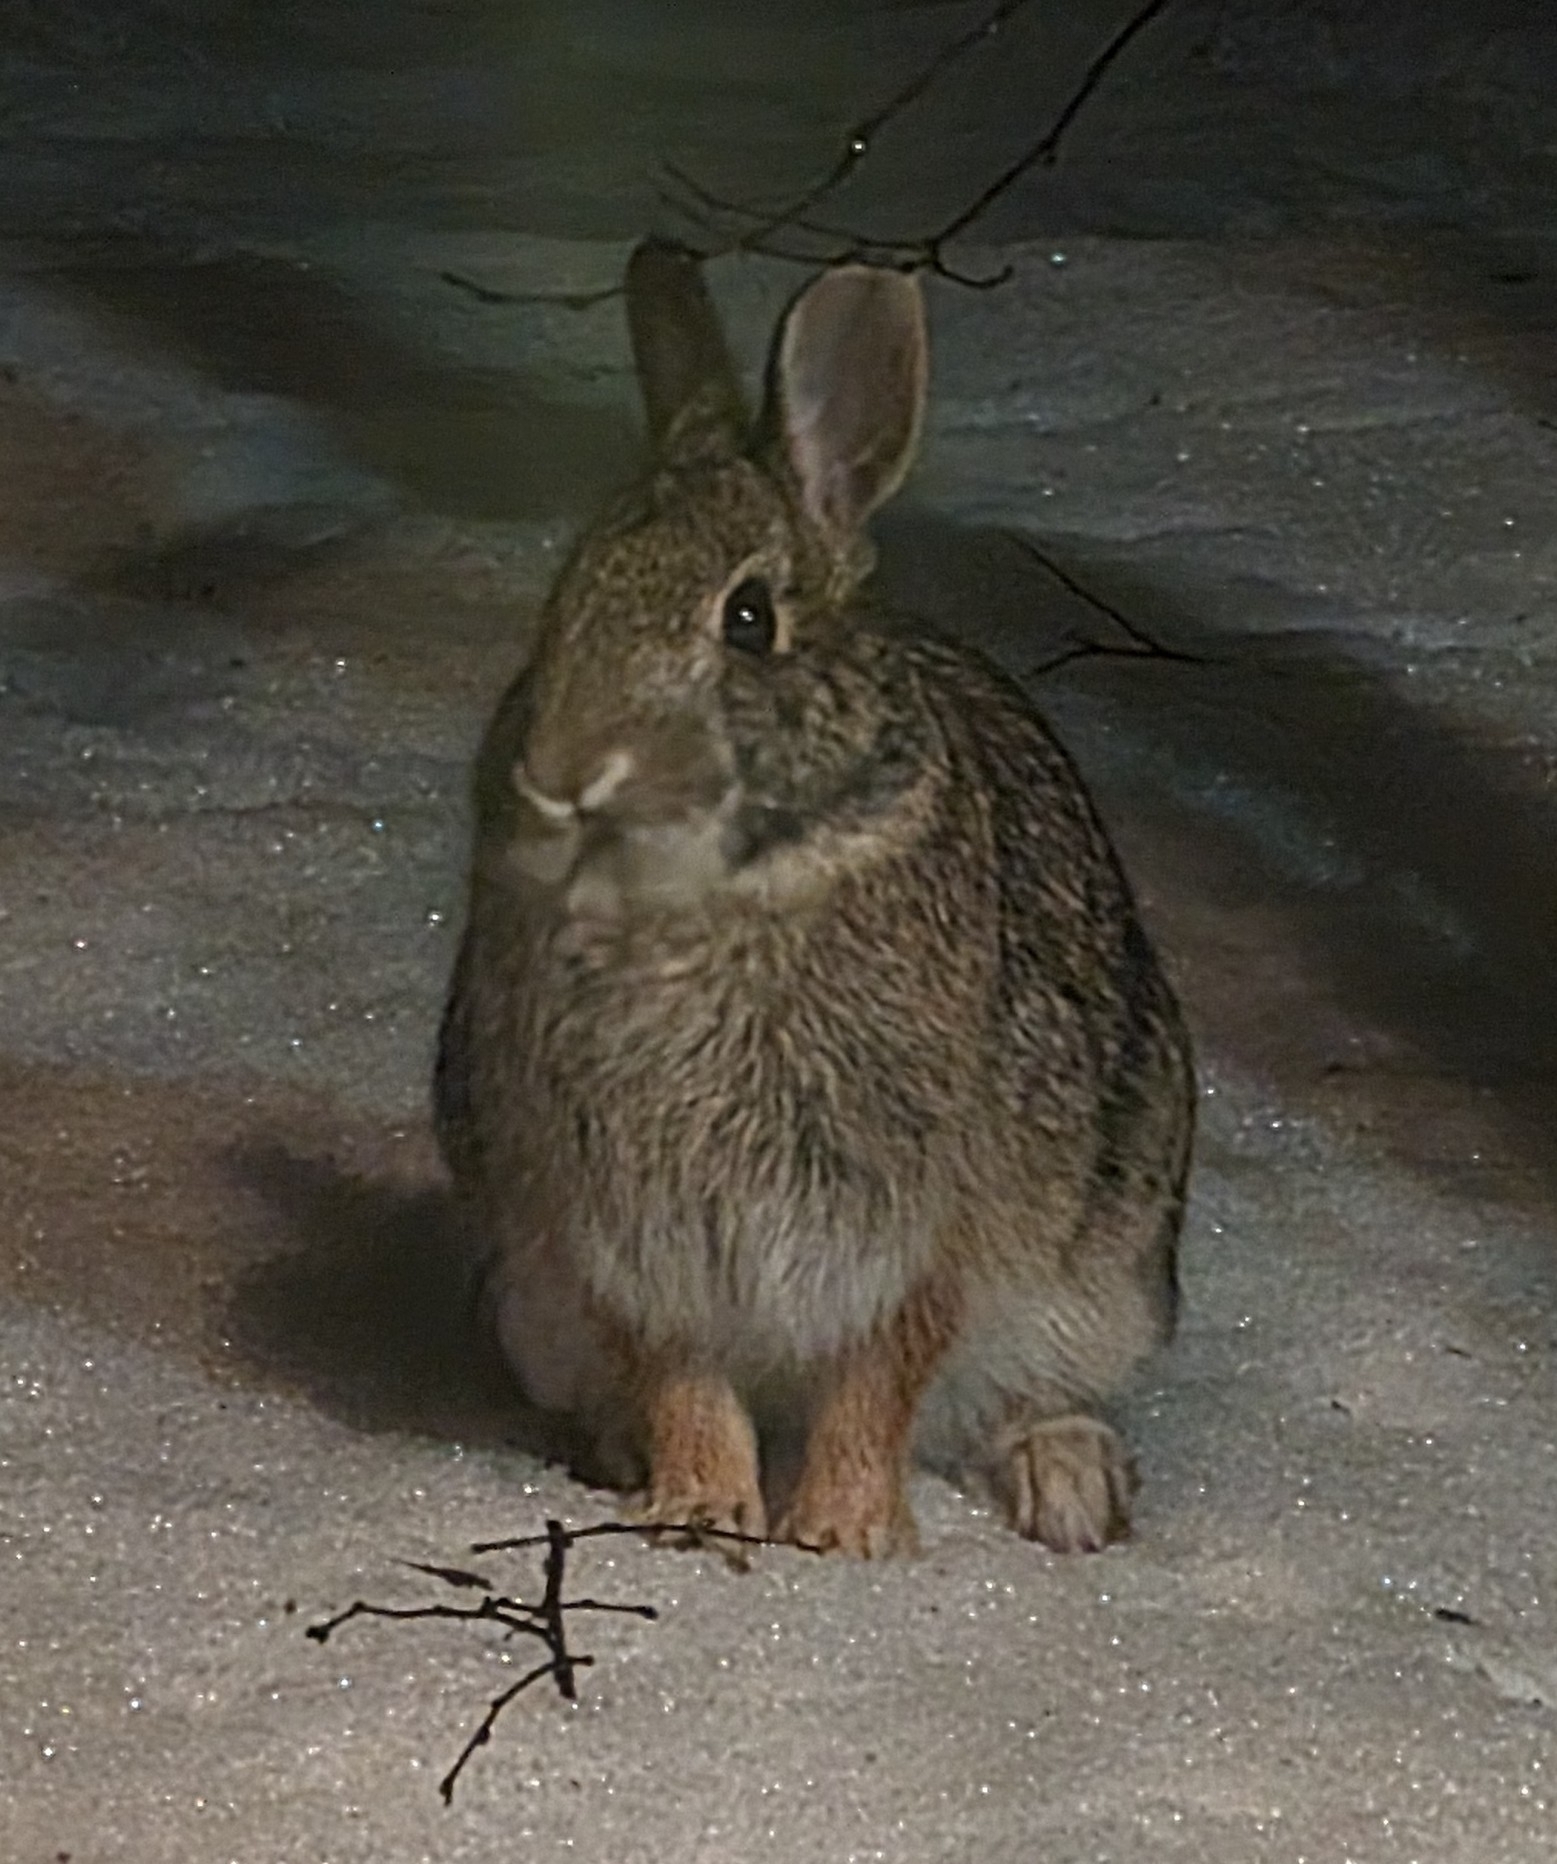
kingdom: Animalia
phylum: Chordata
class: Mammalia
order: Lagomorpha
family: Leporidae
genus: Sylvilagus
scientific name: Sylvilagus floridanus
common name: Eastern cottontail
